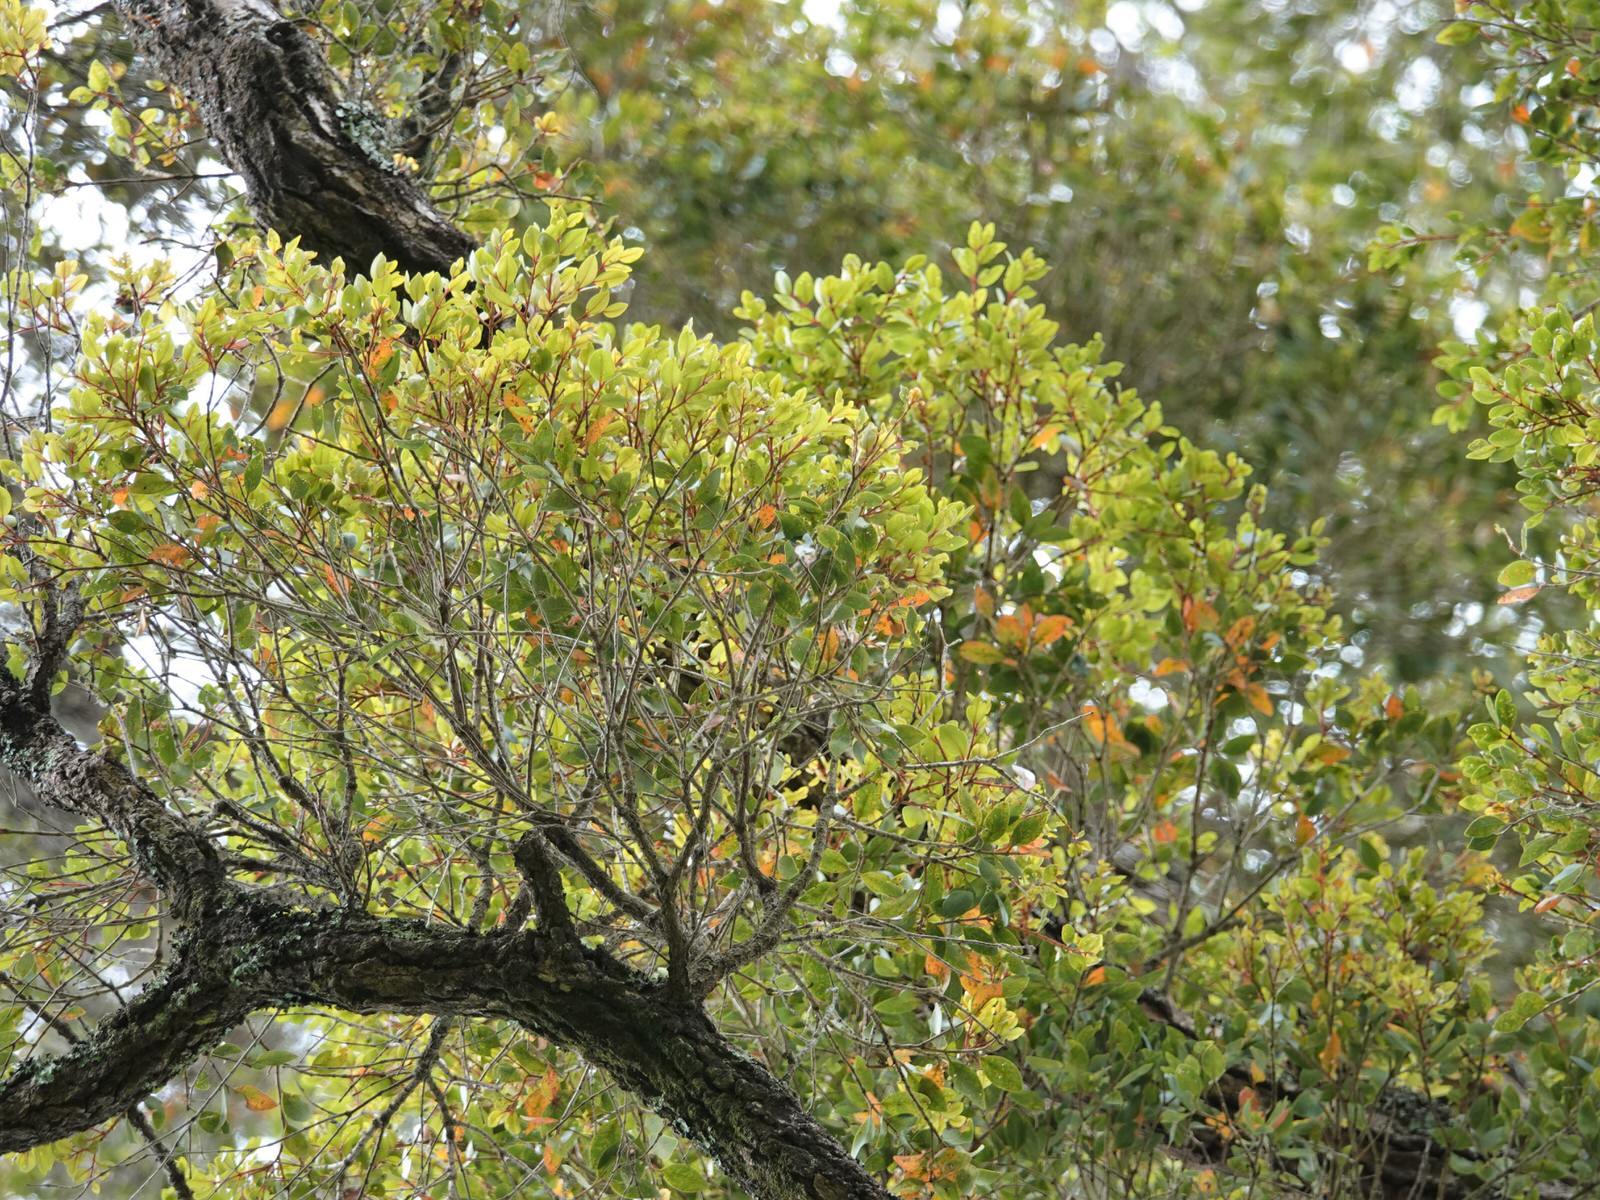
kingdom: Plantae
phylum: Tracheophyta
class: Magnoliopsida
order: Myrtales
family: Myrtaceae
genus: Metrosideros
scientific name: Metrosideros robusta
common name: Northern rata
